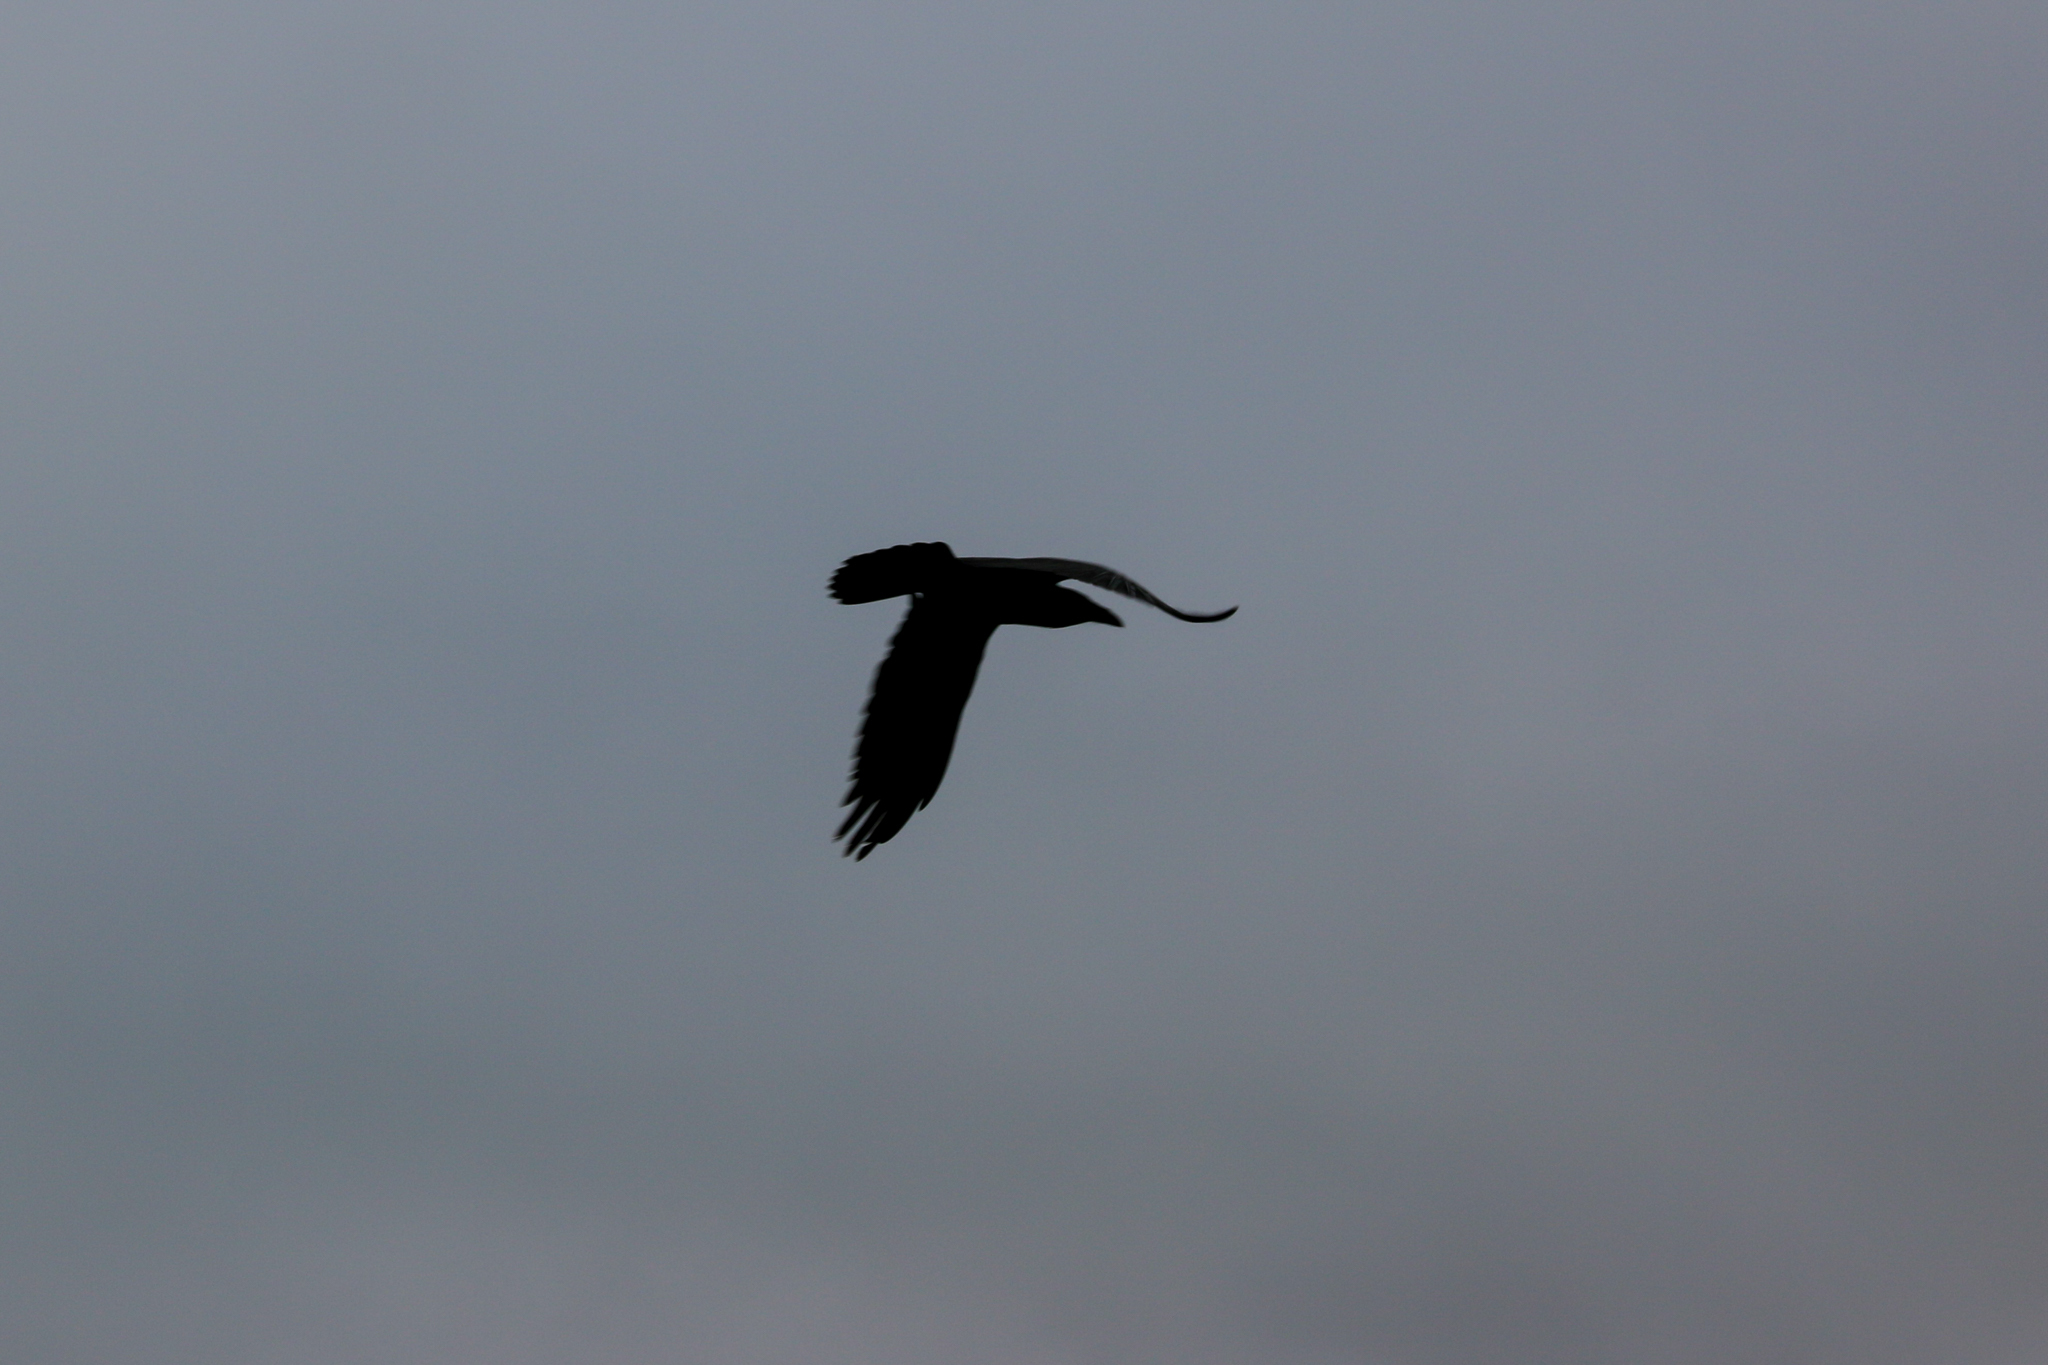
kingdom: Animalia
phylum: Chordata
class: Aves
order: Passeriformes
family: Corvidae
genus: Corvus
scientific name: Corvus corax
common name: Common raven
